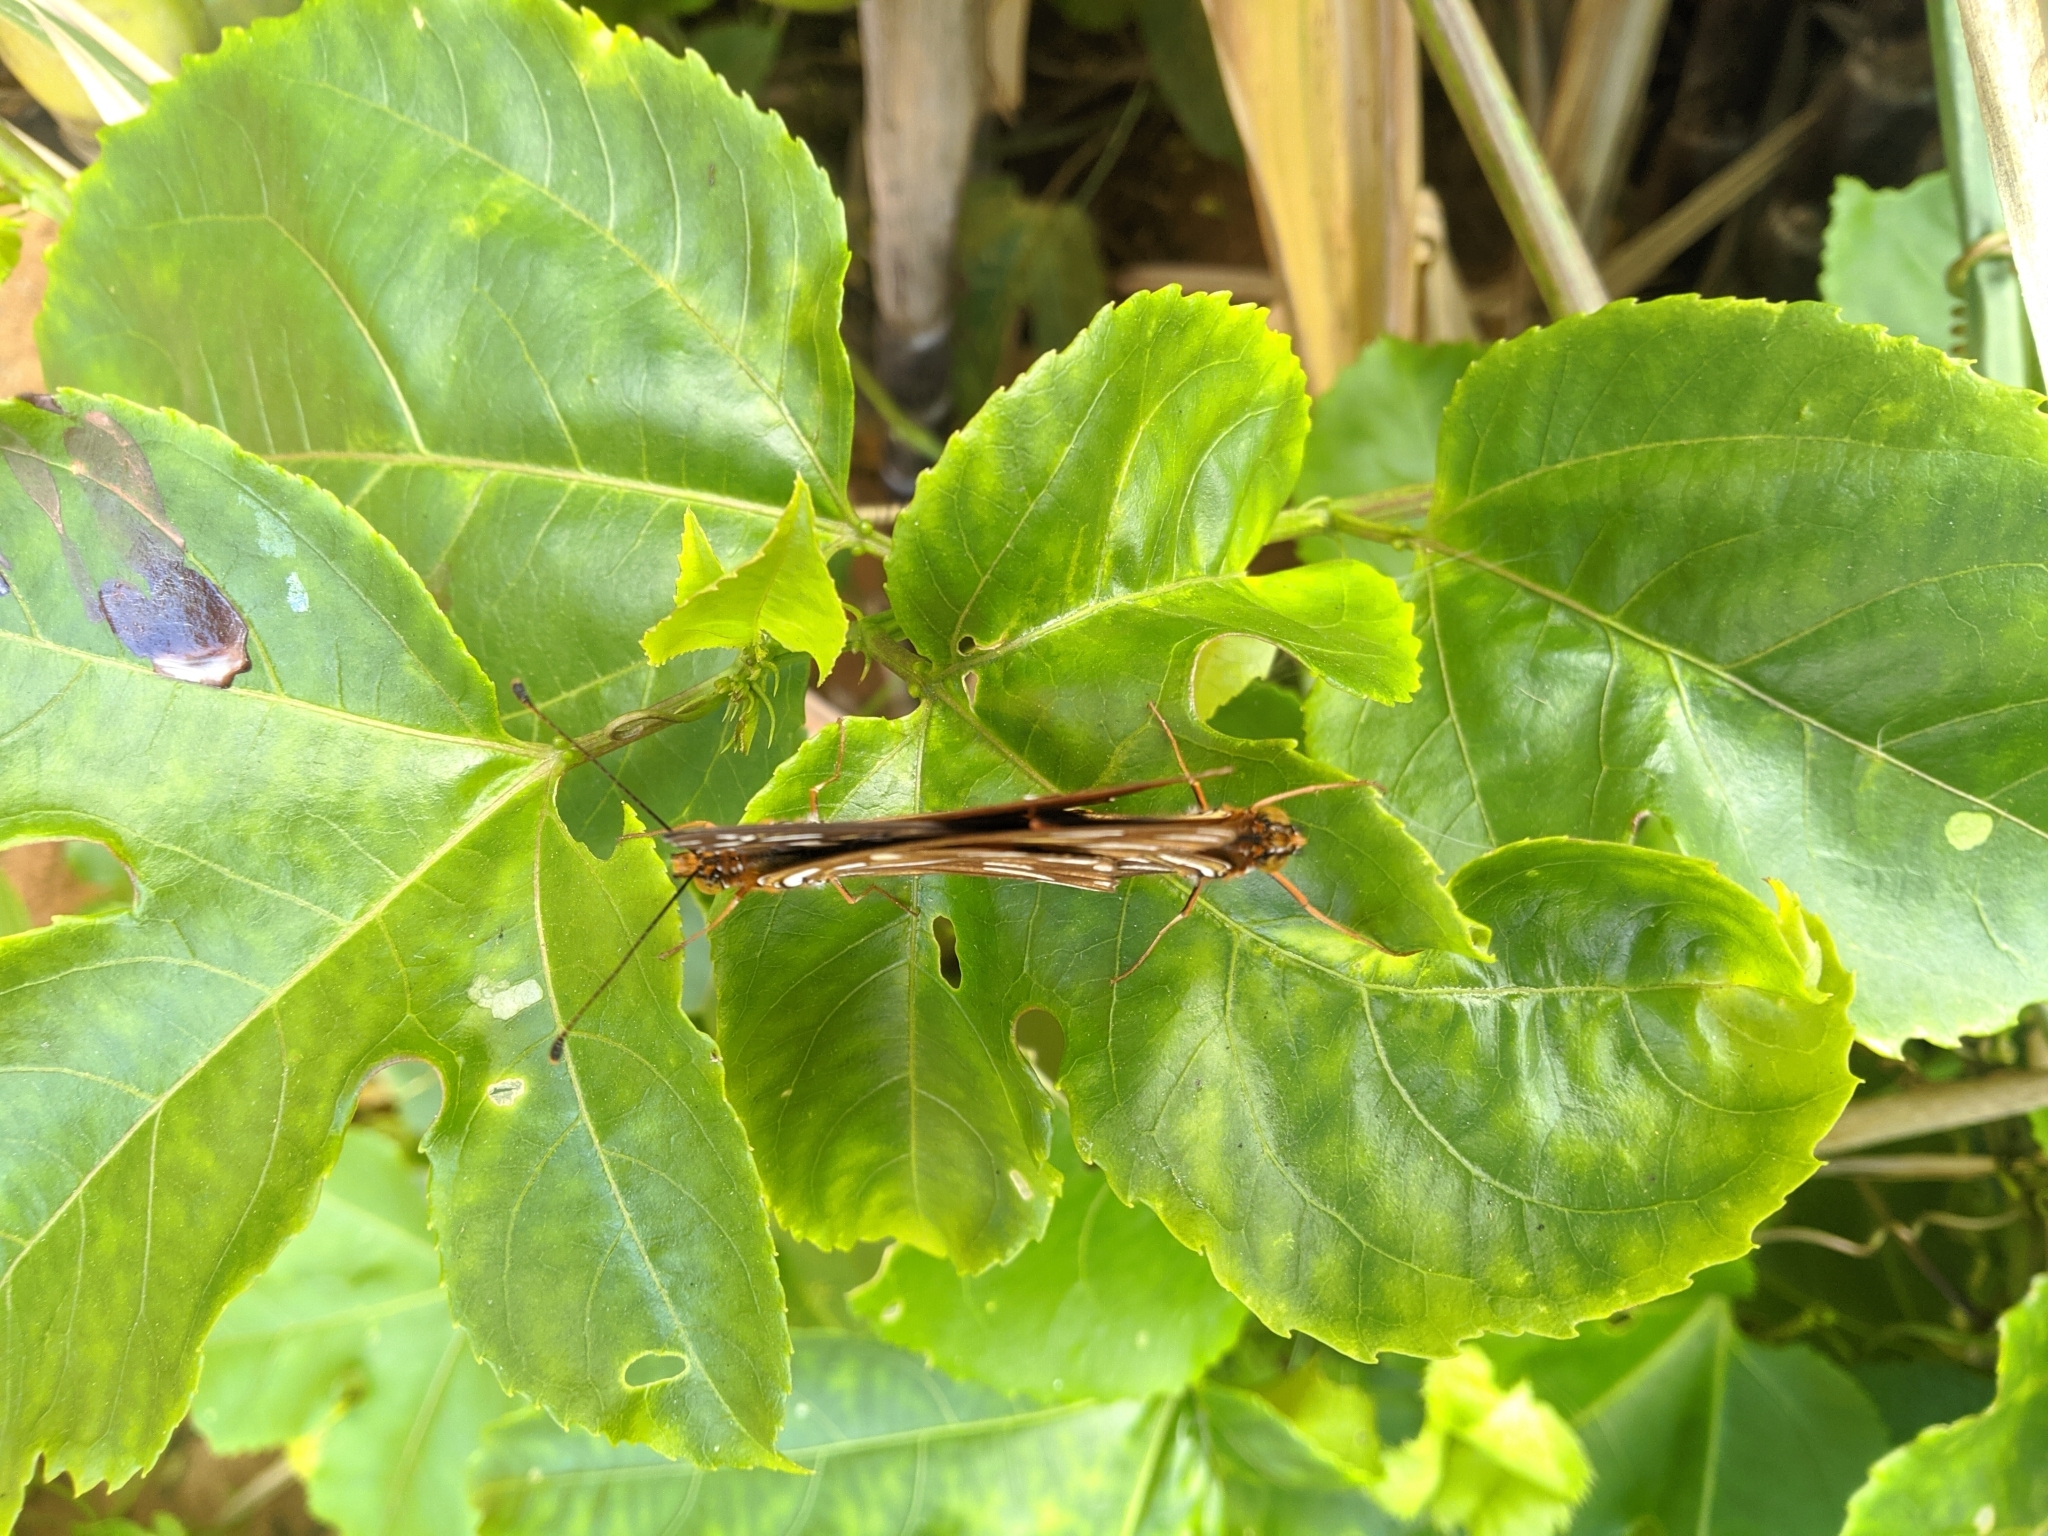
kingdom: Animalia
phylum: Arthropoda
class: Insecta
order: Lepidoptera
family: Nymphalidae
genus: Dione
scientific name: Dione vanillae
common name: Gulf fritillary
